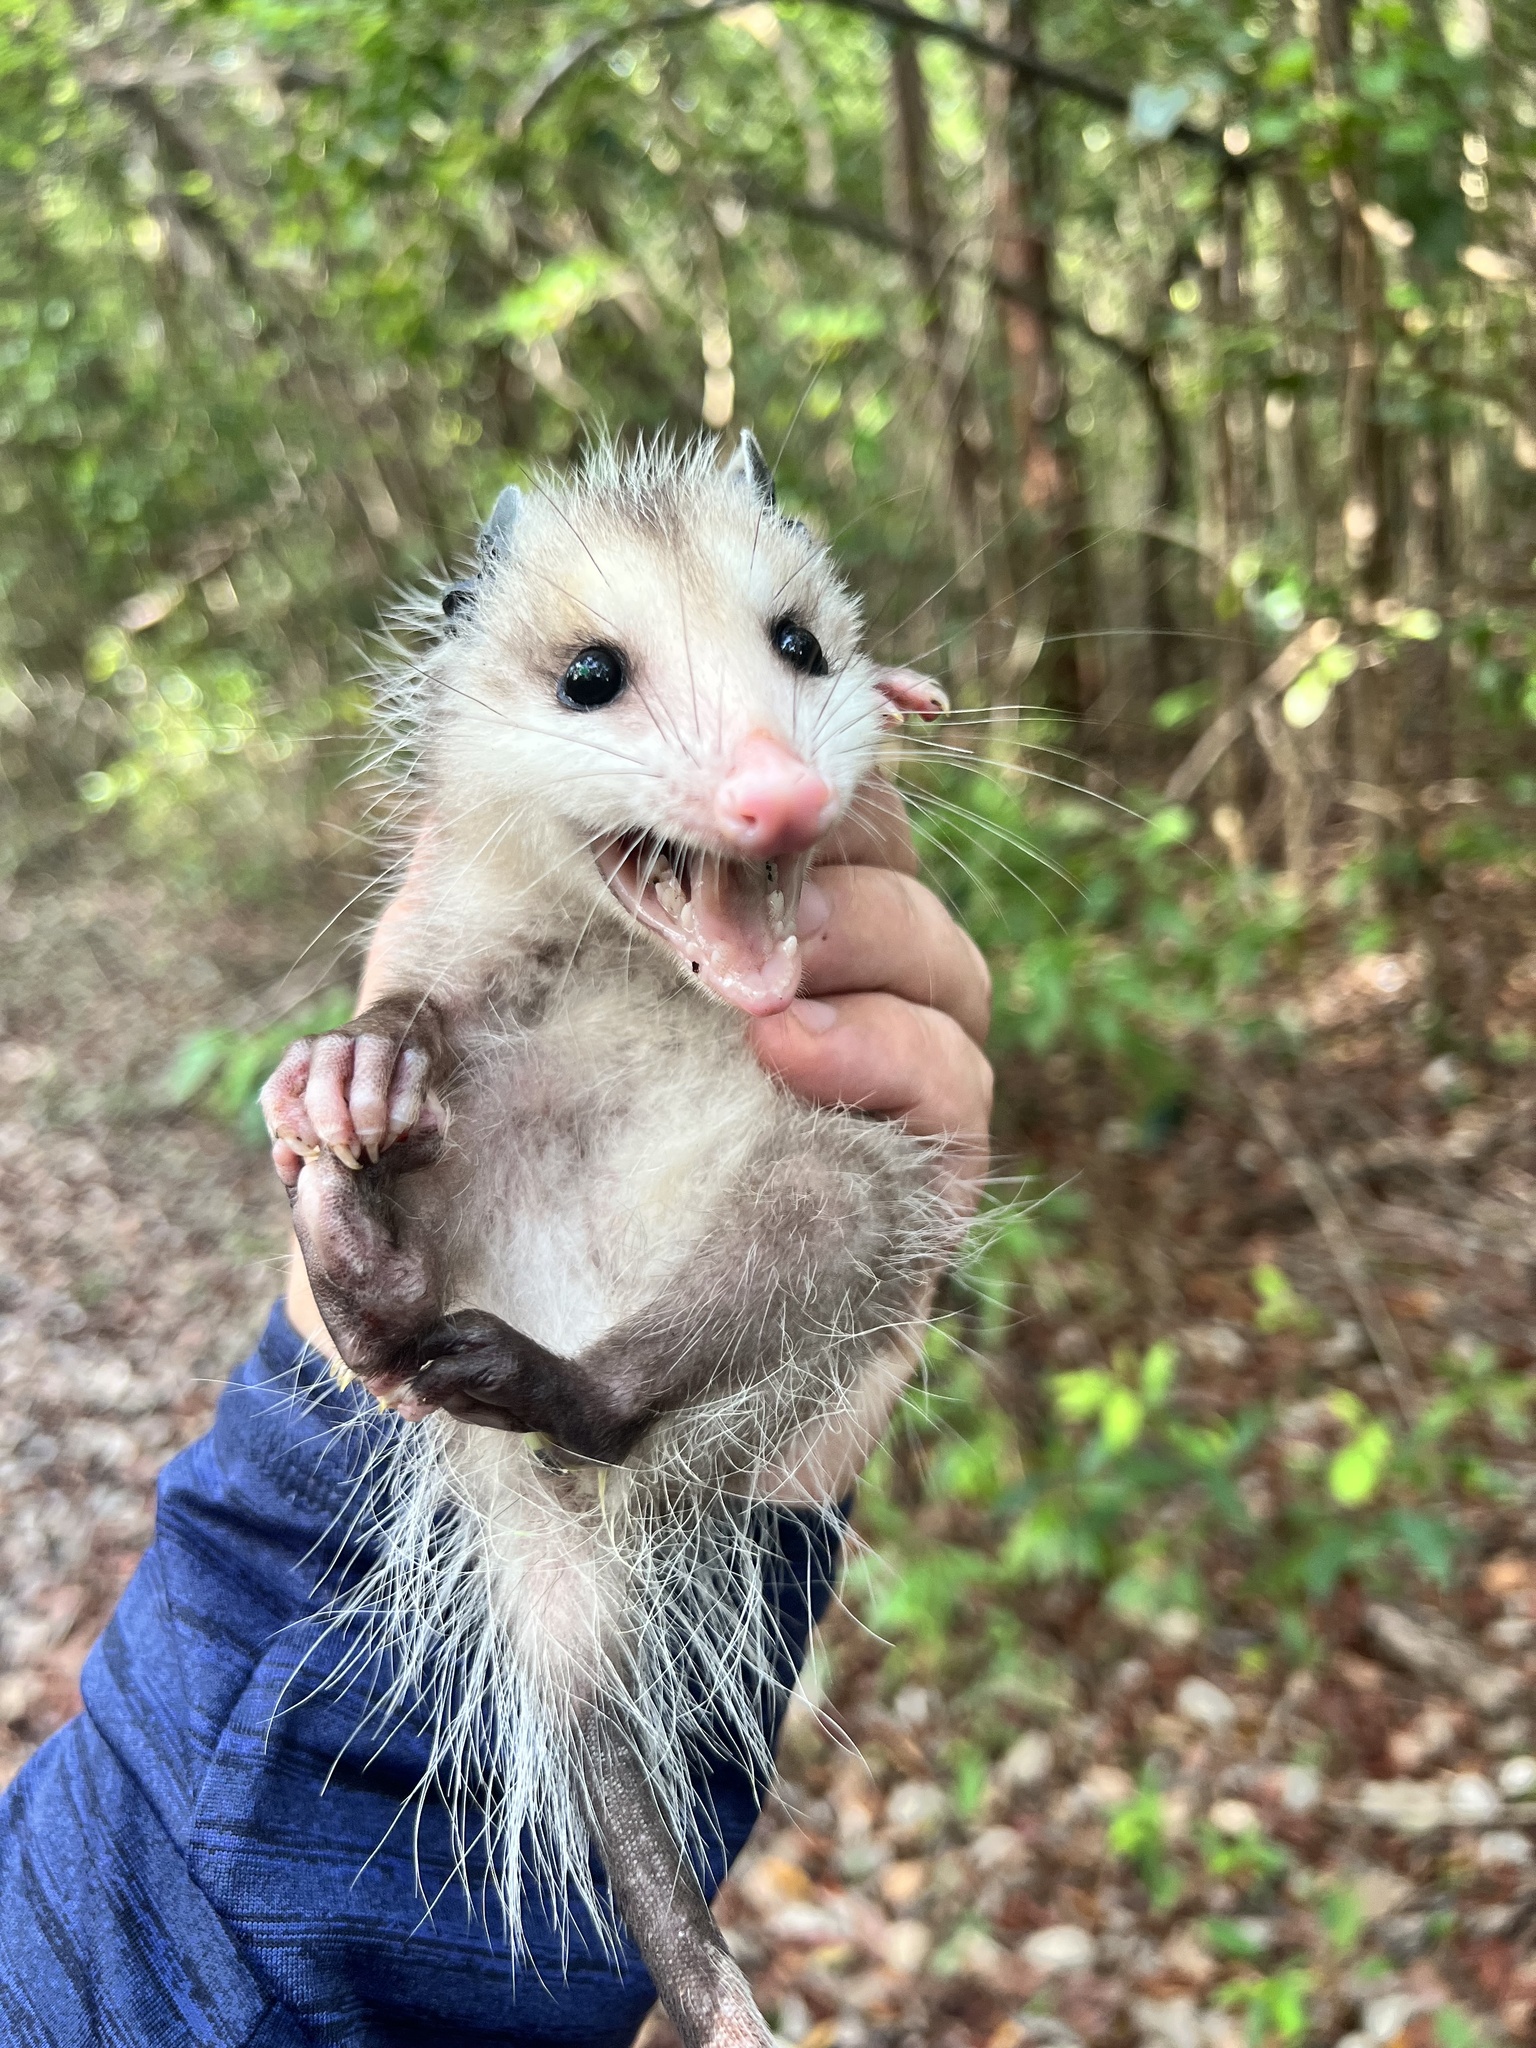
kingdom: Animalia
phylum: Chordata
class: Mammalia
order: Didelphimorphia
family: Didelphidae
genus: Didelphis
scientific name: Didelphis virginiana
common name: Virginia opossum
